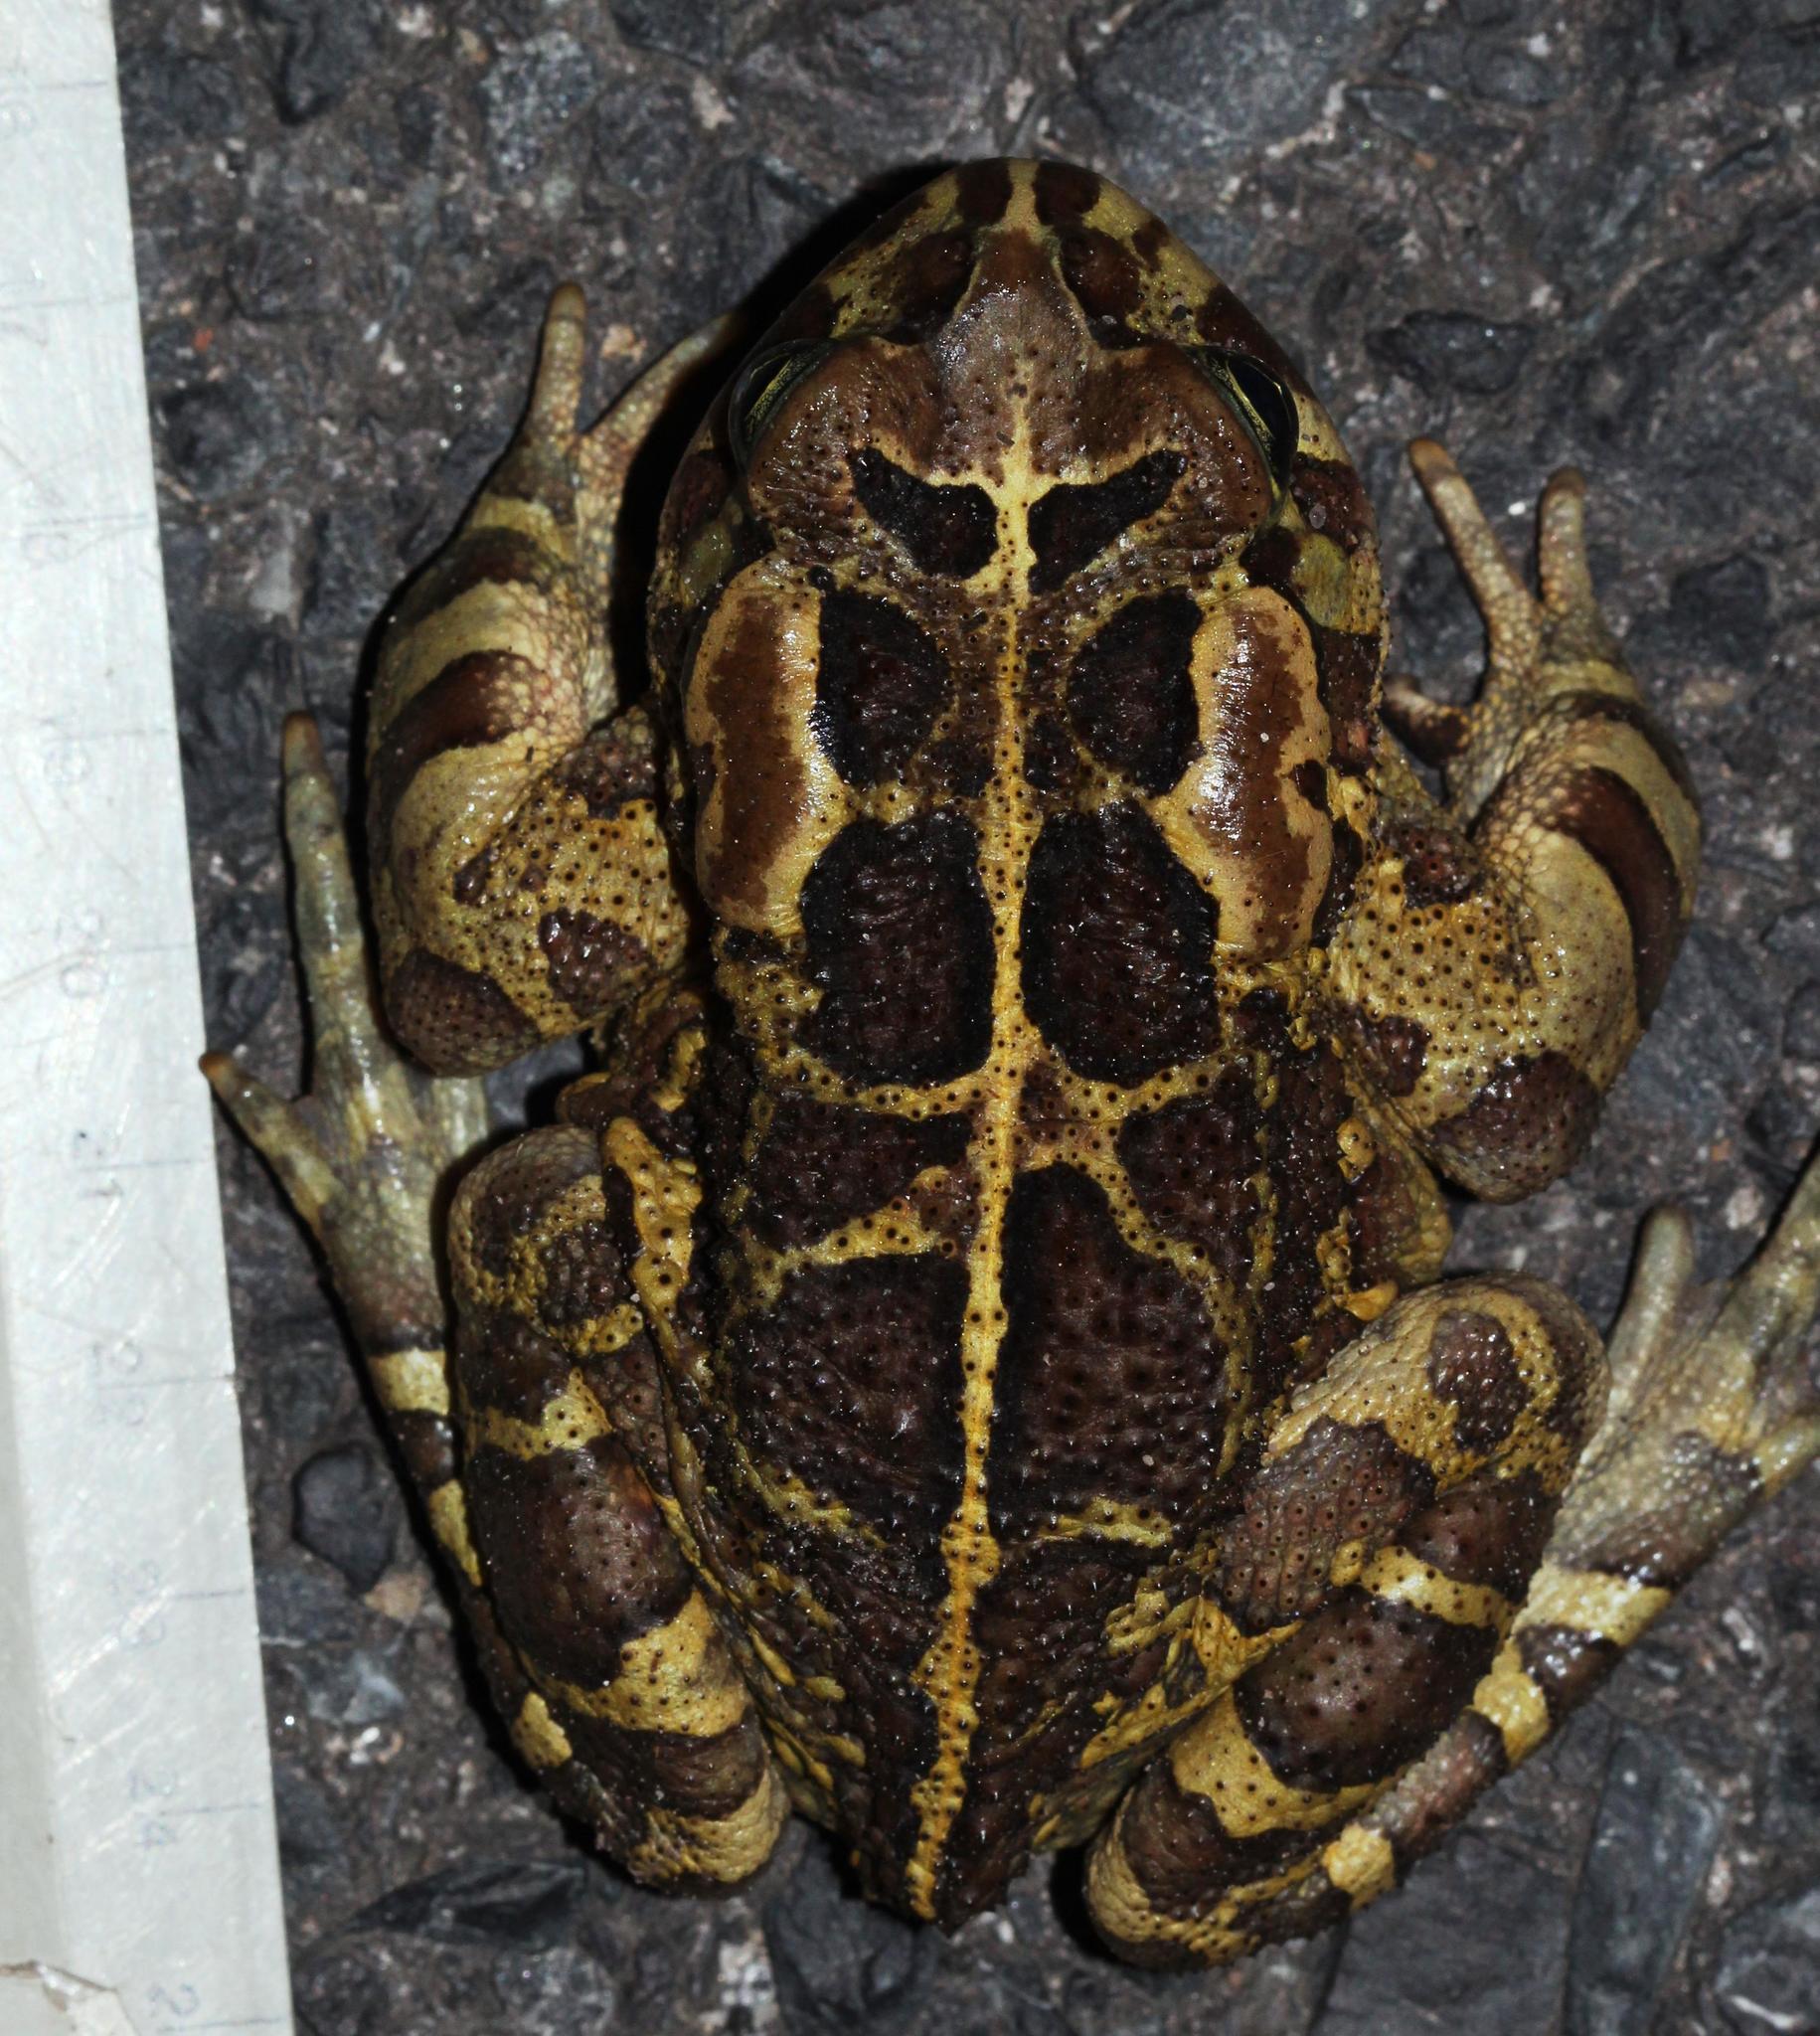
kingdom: Animalia
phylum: Chordata
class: Amphibia
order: Anura
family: Bufonidae
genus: Sclerophrys
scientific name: Sclerophrys pantherina
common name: Panther toad
